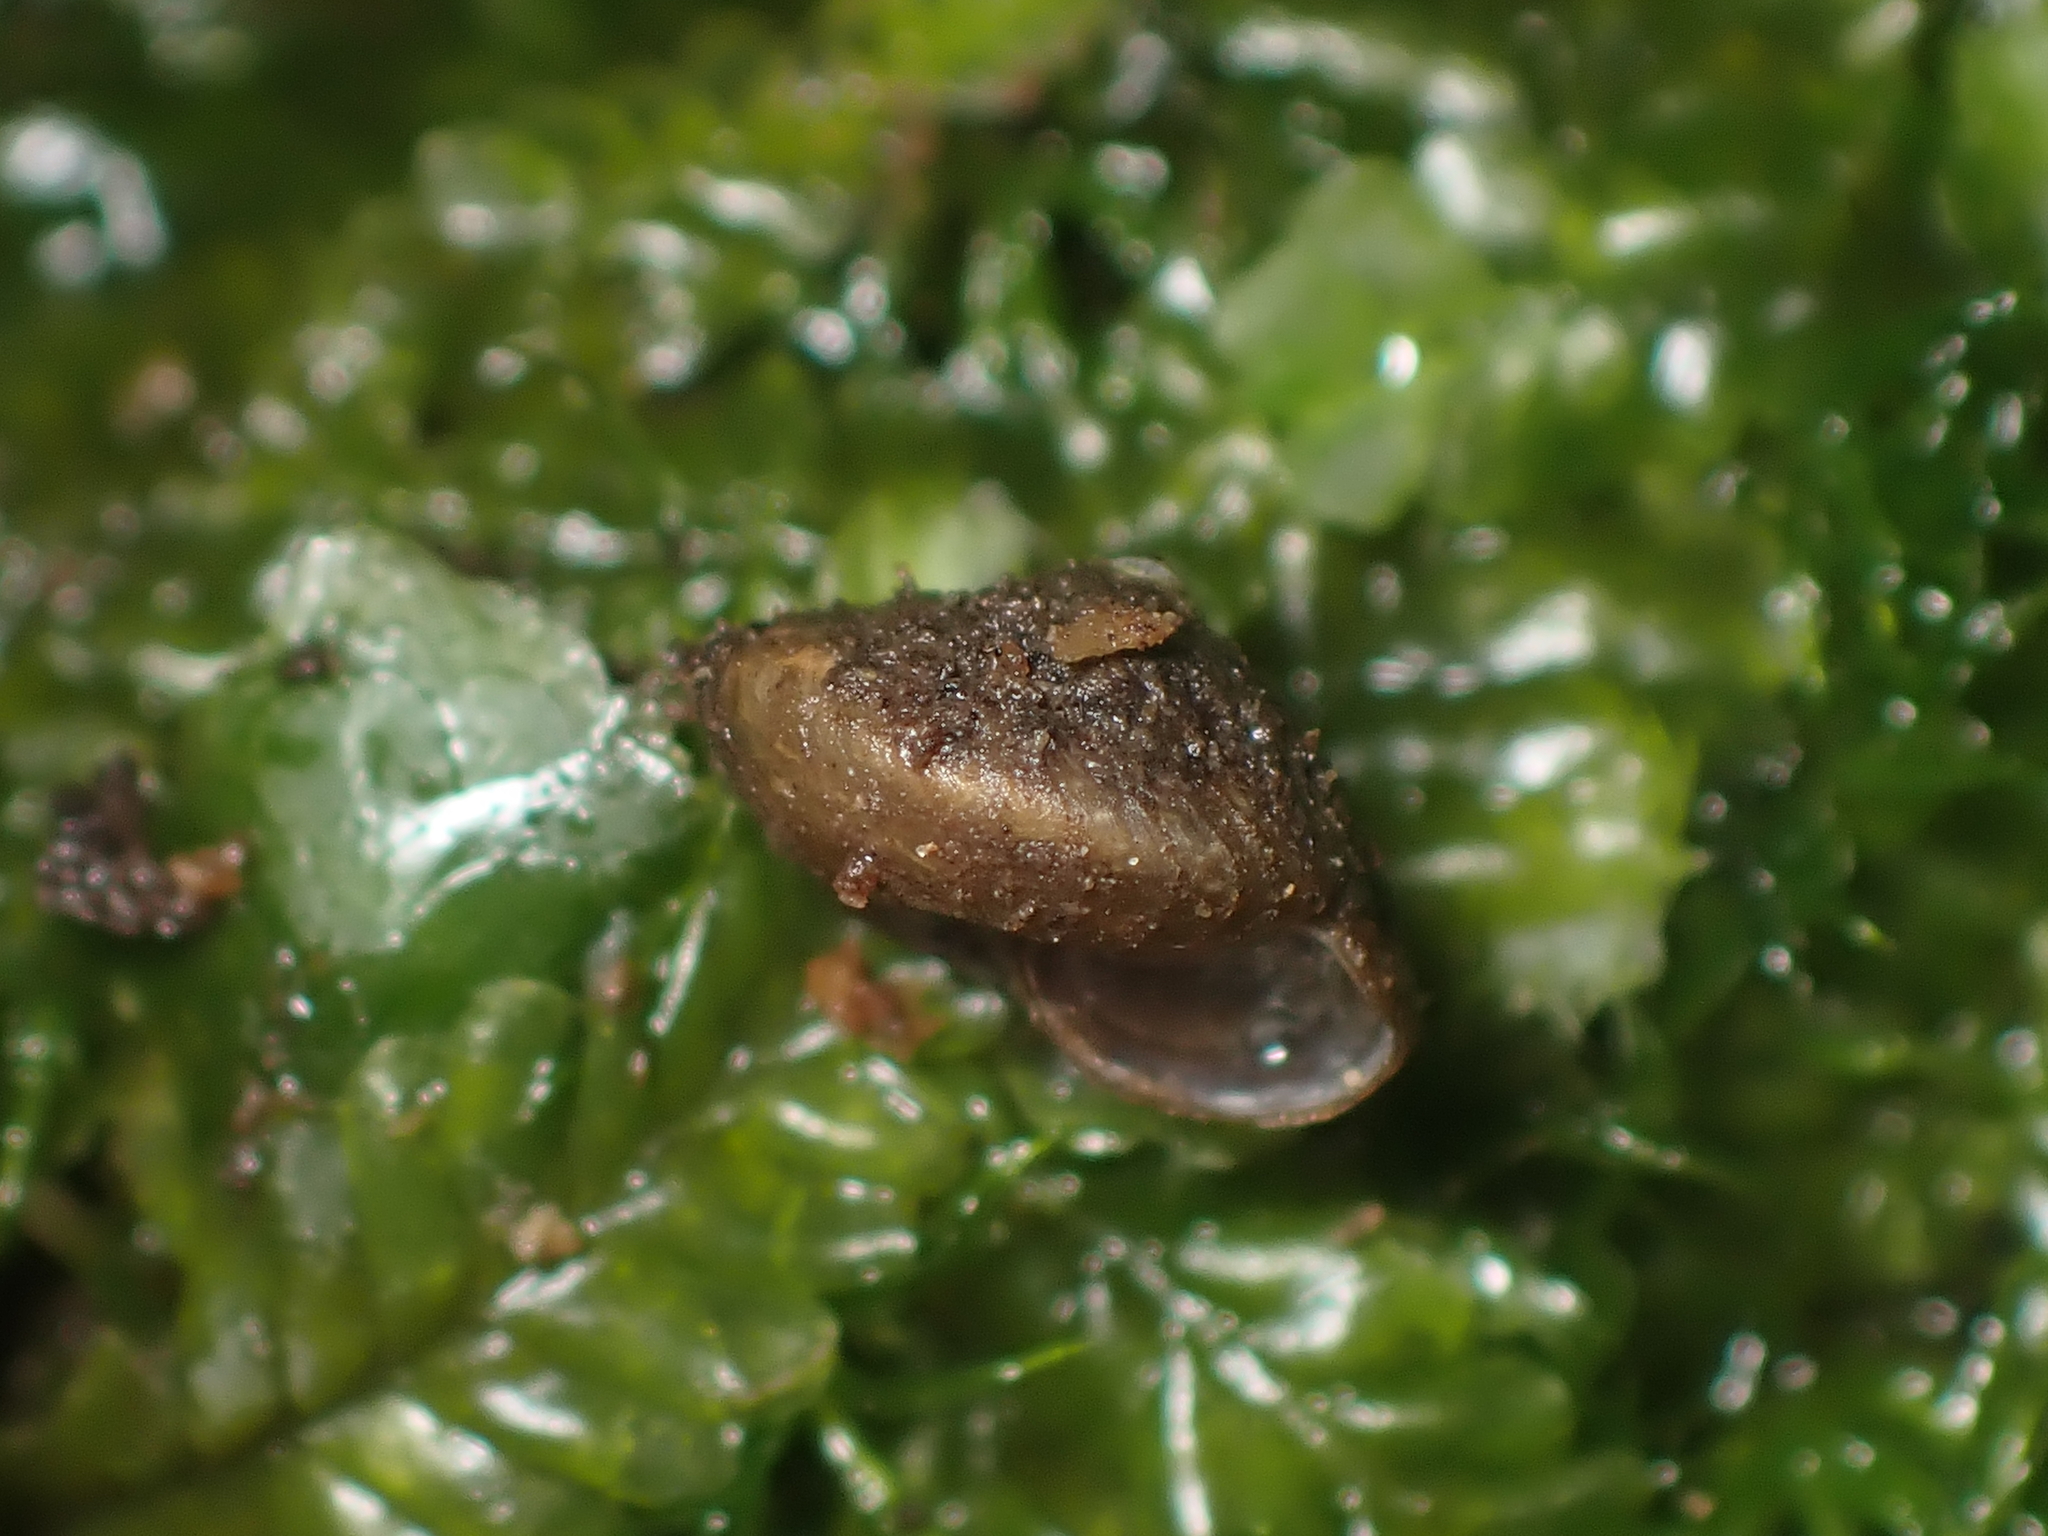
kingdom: Animalia
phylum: Mollusca
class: Gastropoda
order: Stylommatophora
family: Charopidae
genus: Therasiella
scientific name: Therasiella tamora
